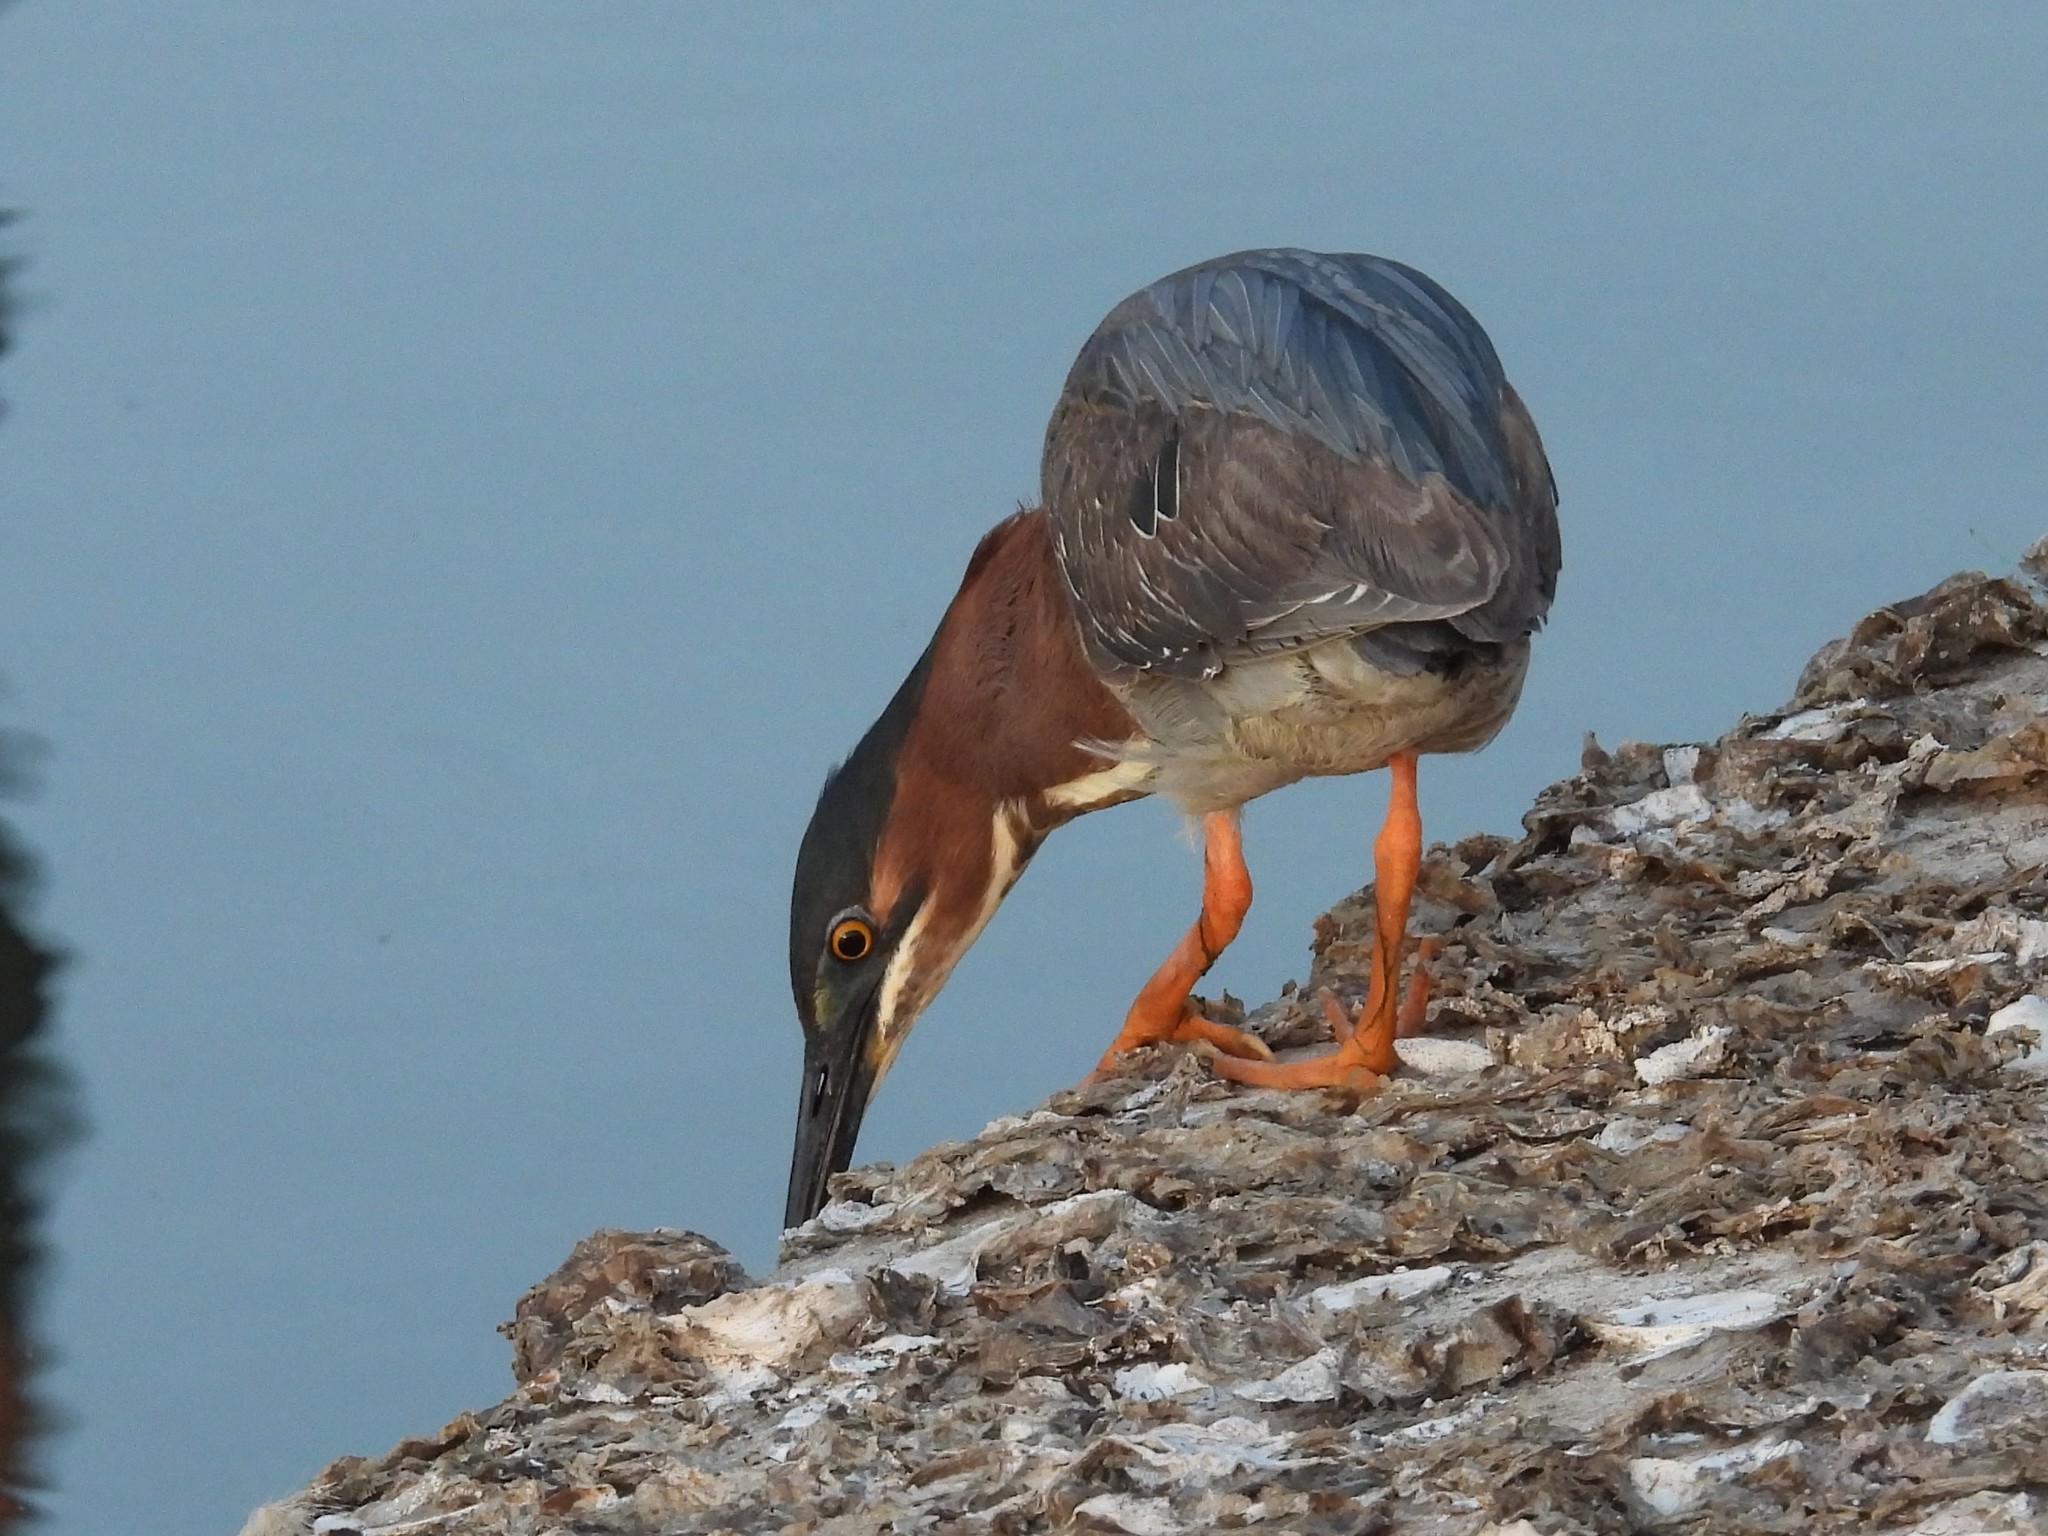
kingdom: Animalia
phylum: Chordata
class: Aves
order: Pelecaniformes
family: Ardeidae
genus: Butorides
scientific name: Butorides virescens
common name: Green heron
